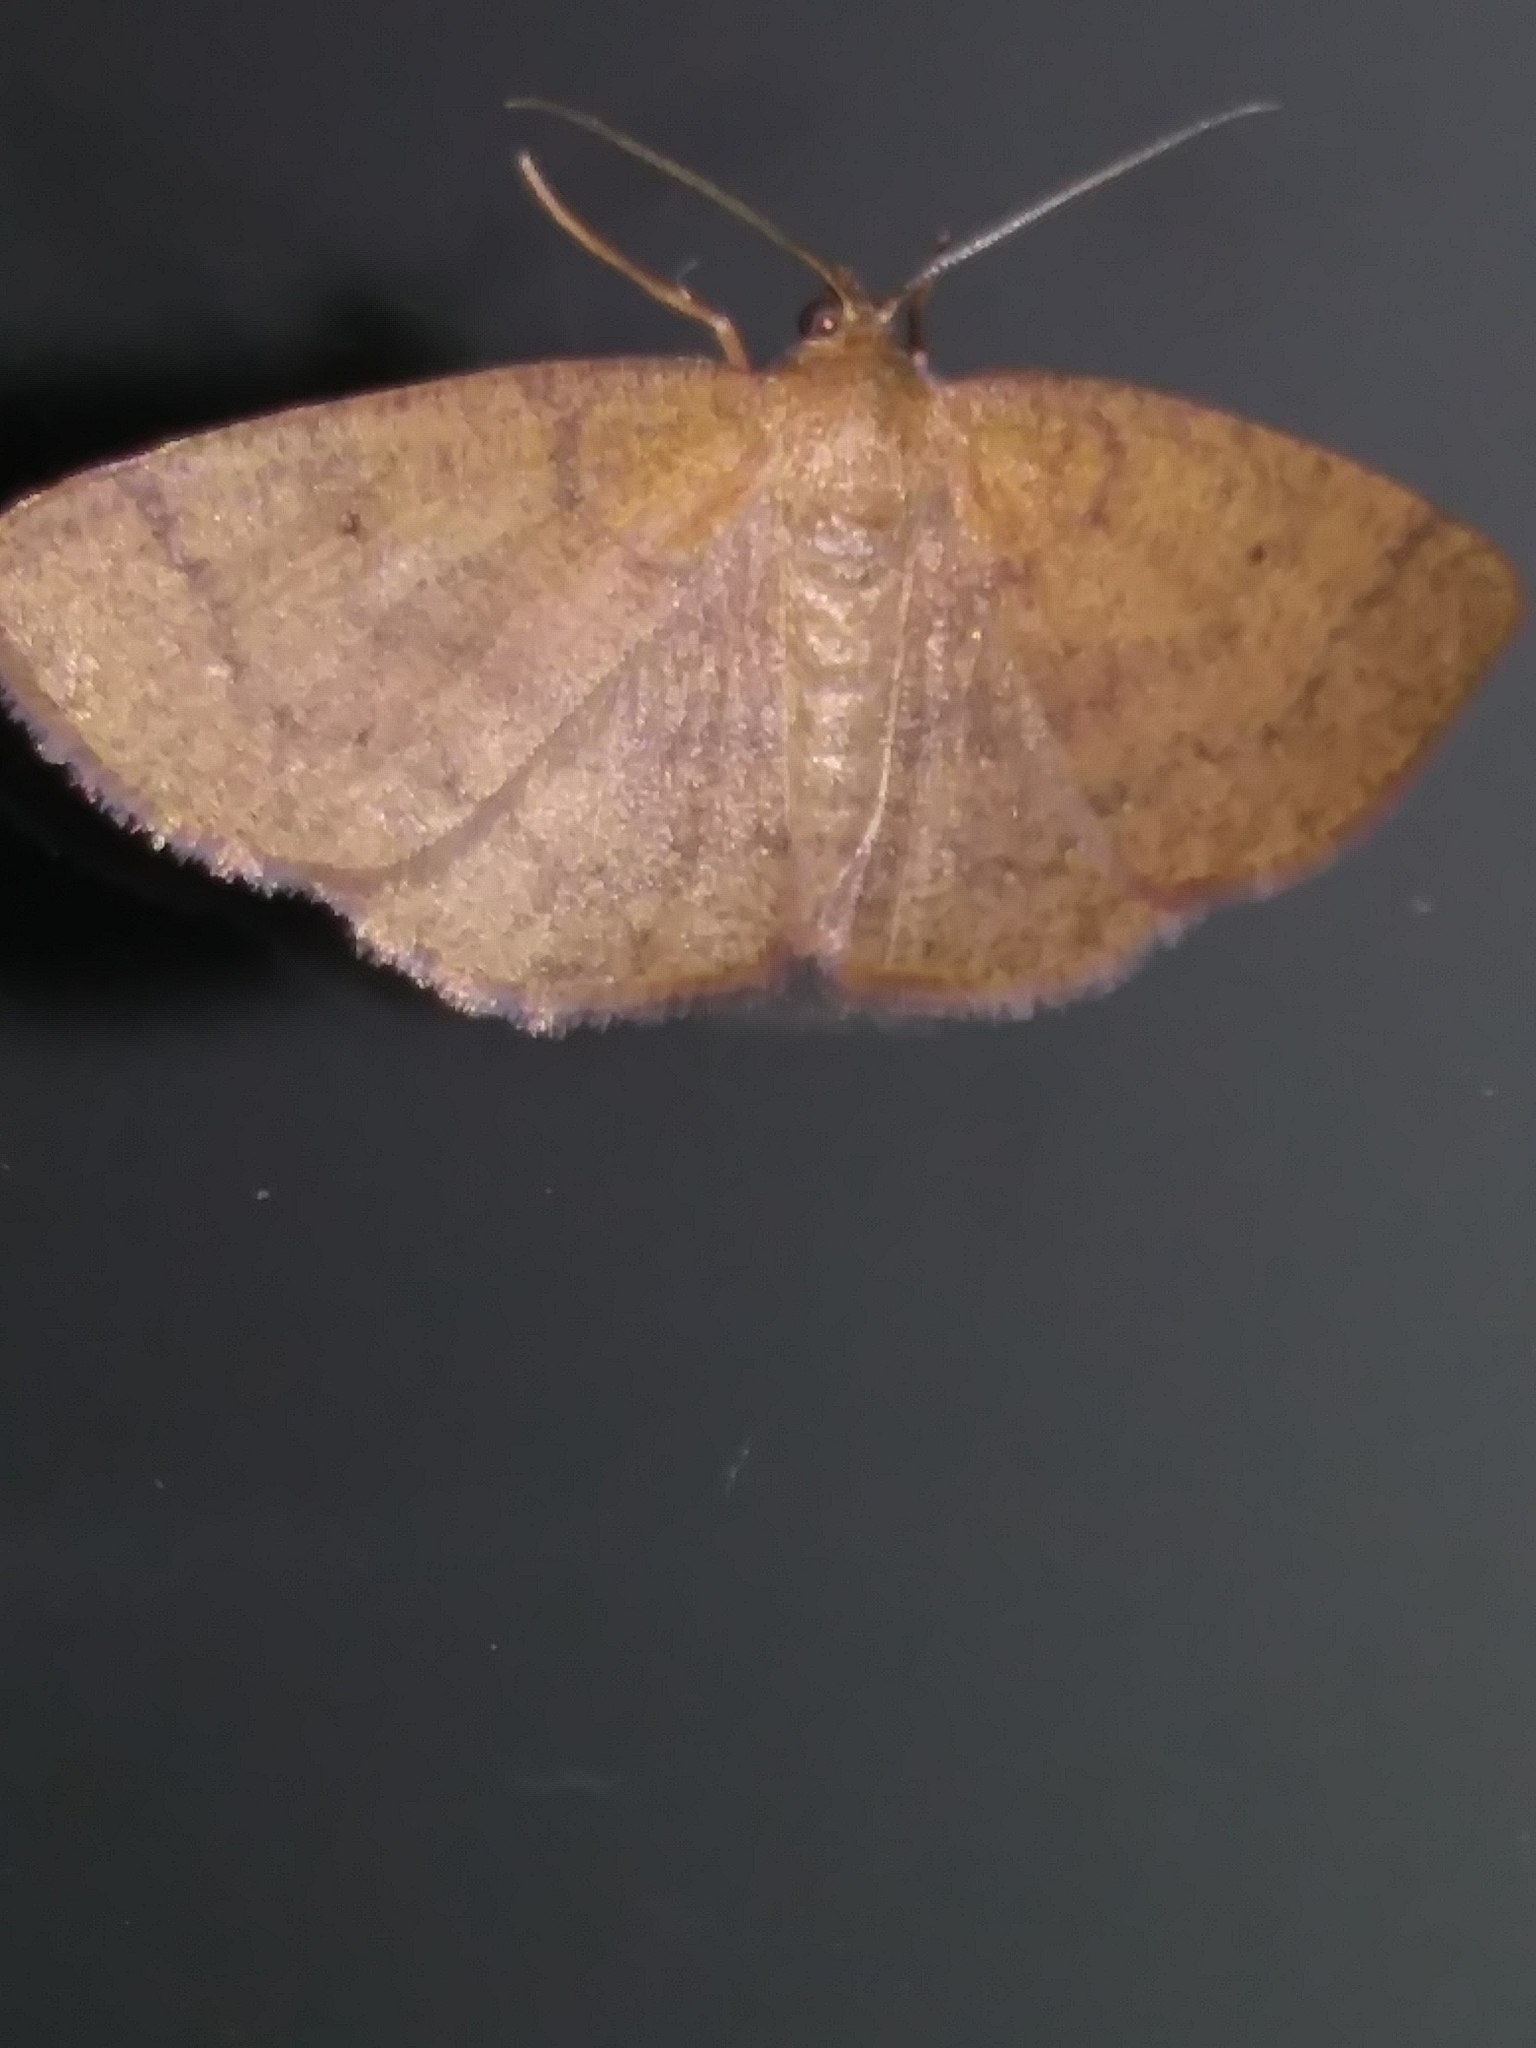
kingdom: Animalia
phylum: Arthropoda
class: Insecta
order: Lepidoptera
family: Geometridae
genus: Ilexia
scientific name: Ilexia intractata
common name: Black-dotted ruddy moth
